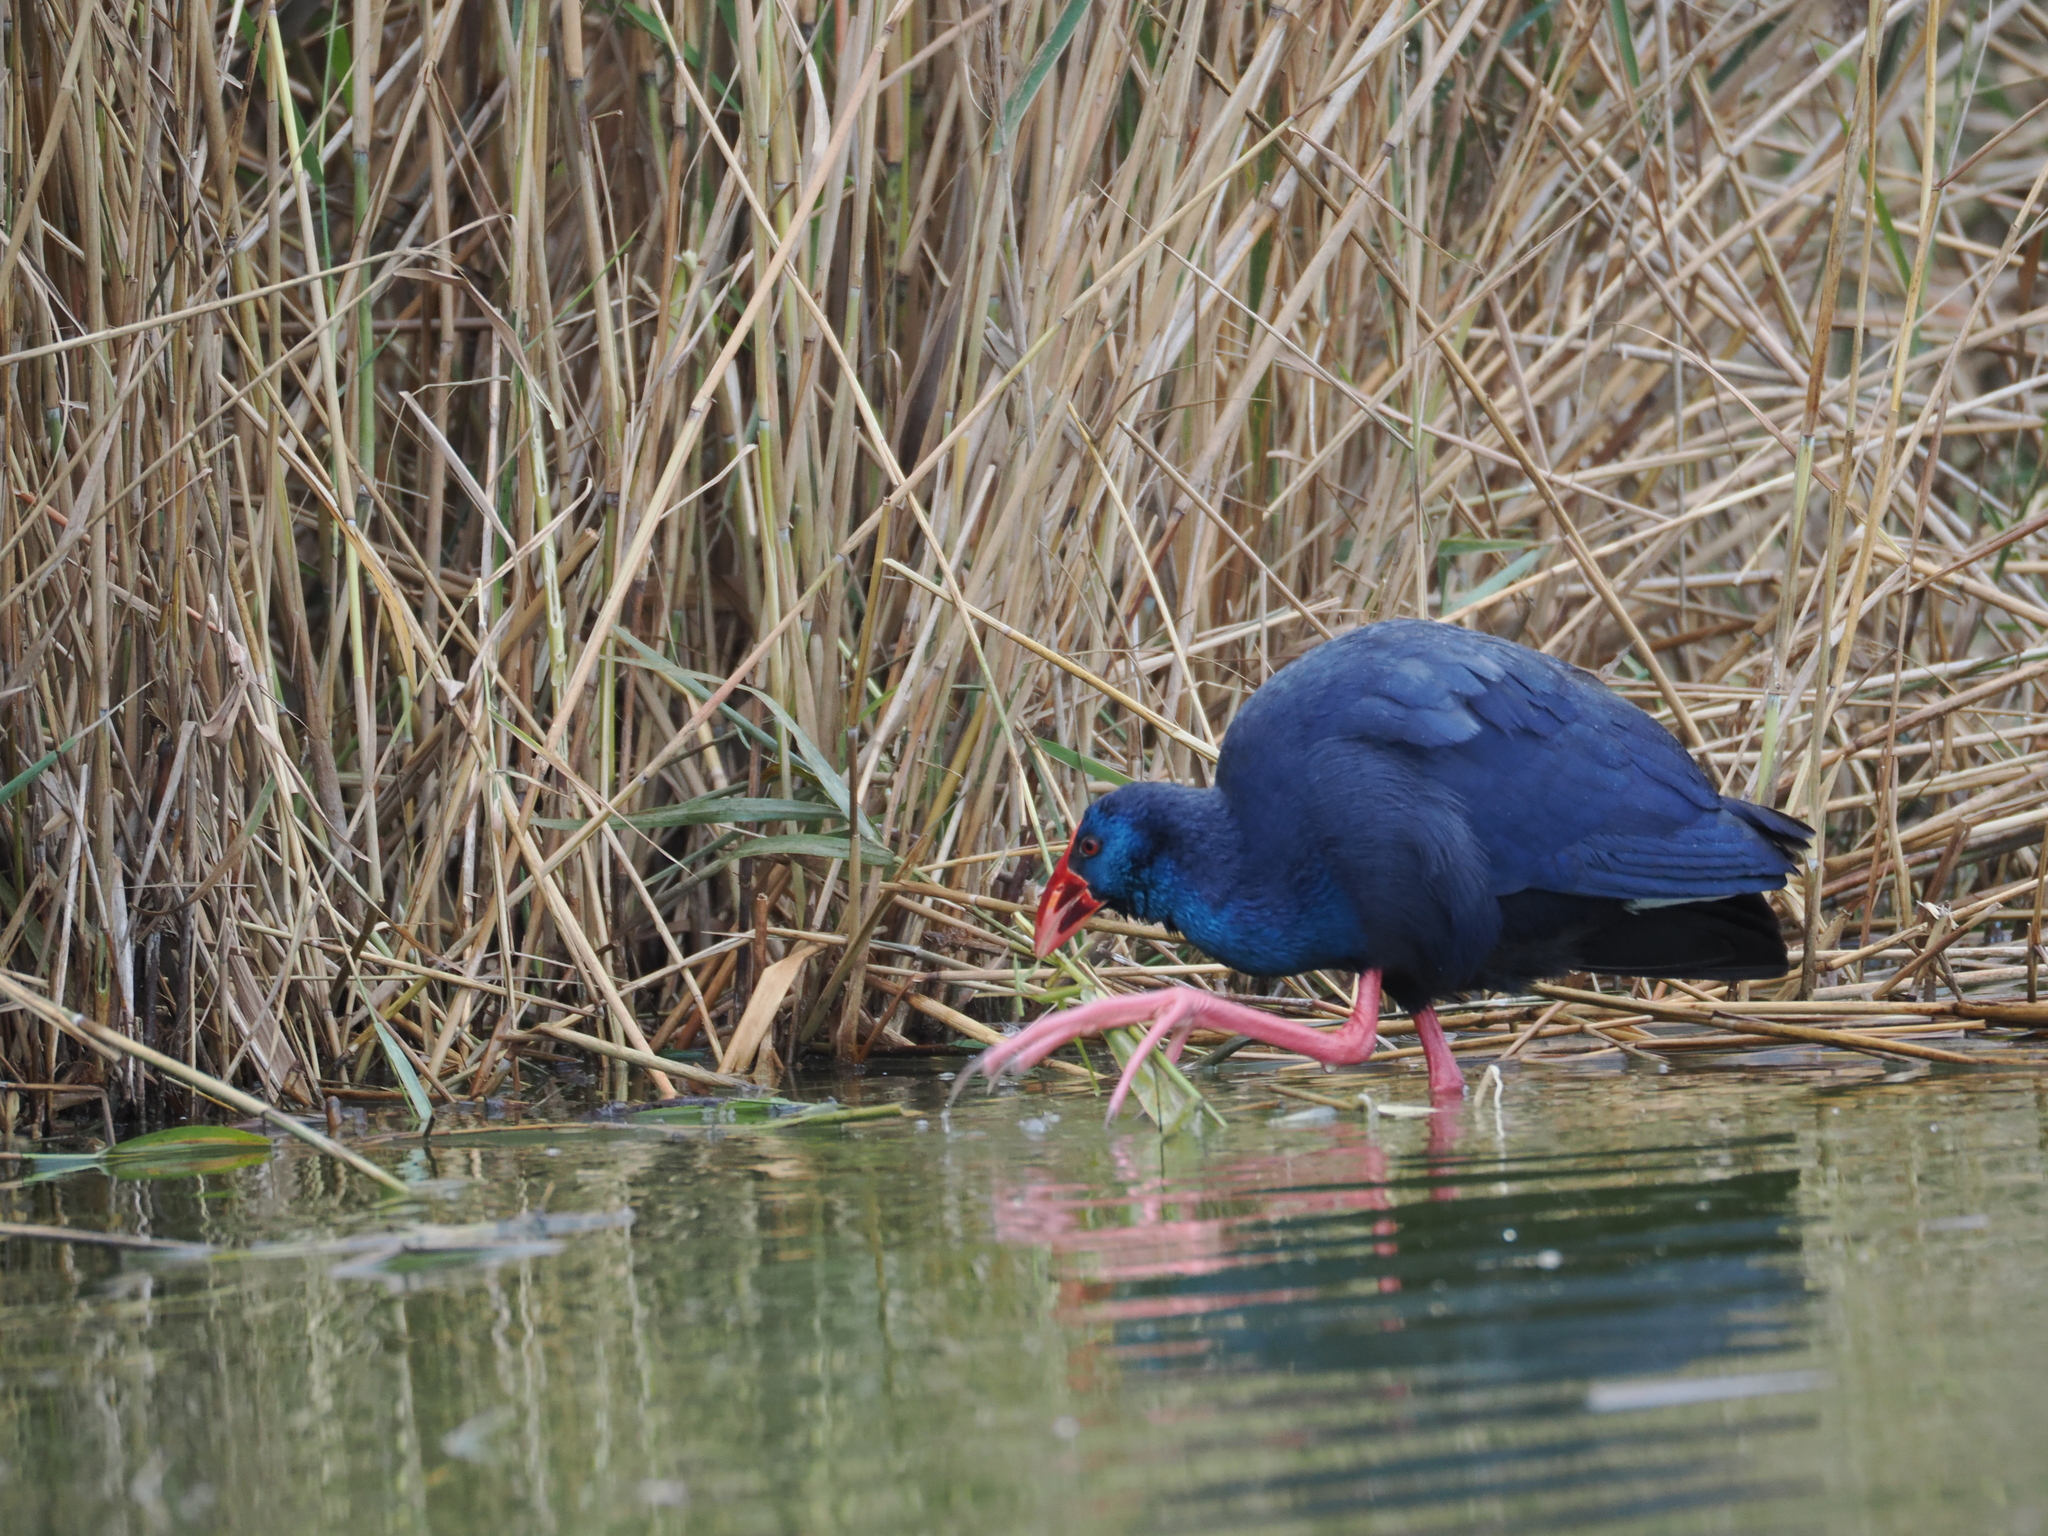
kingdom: Animalia
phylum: Chordata
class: Aves
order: Gruiformes
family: Rallidae
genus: Porphyrio
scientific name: Porphyrio porphyrio
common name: Purple swamphen
